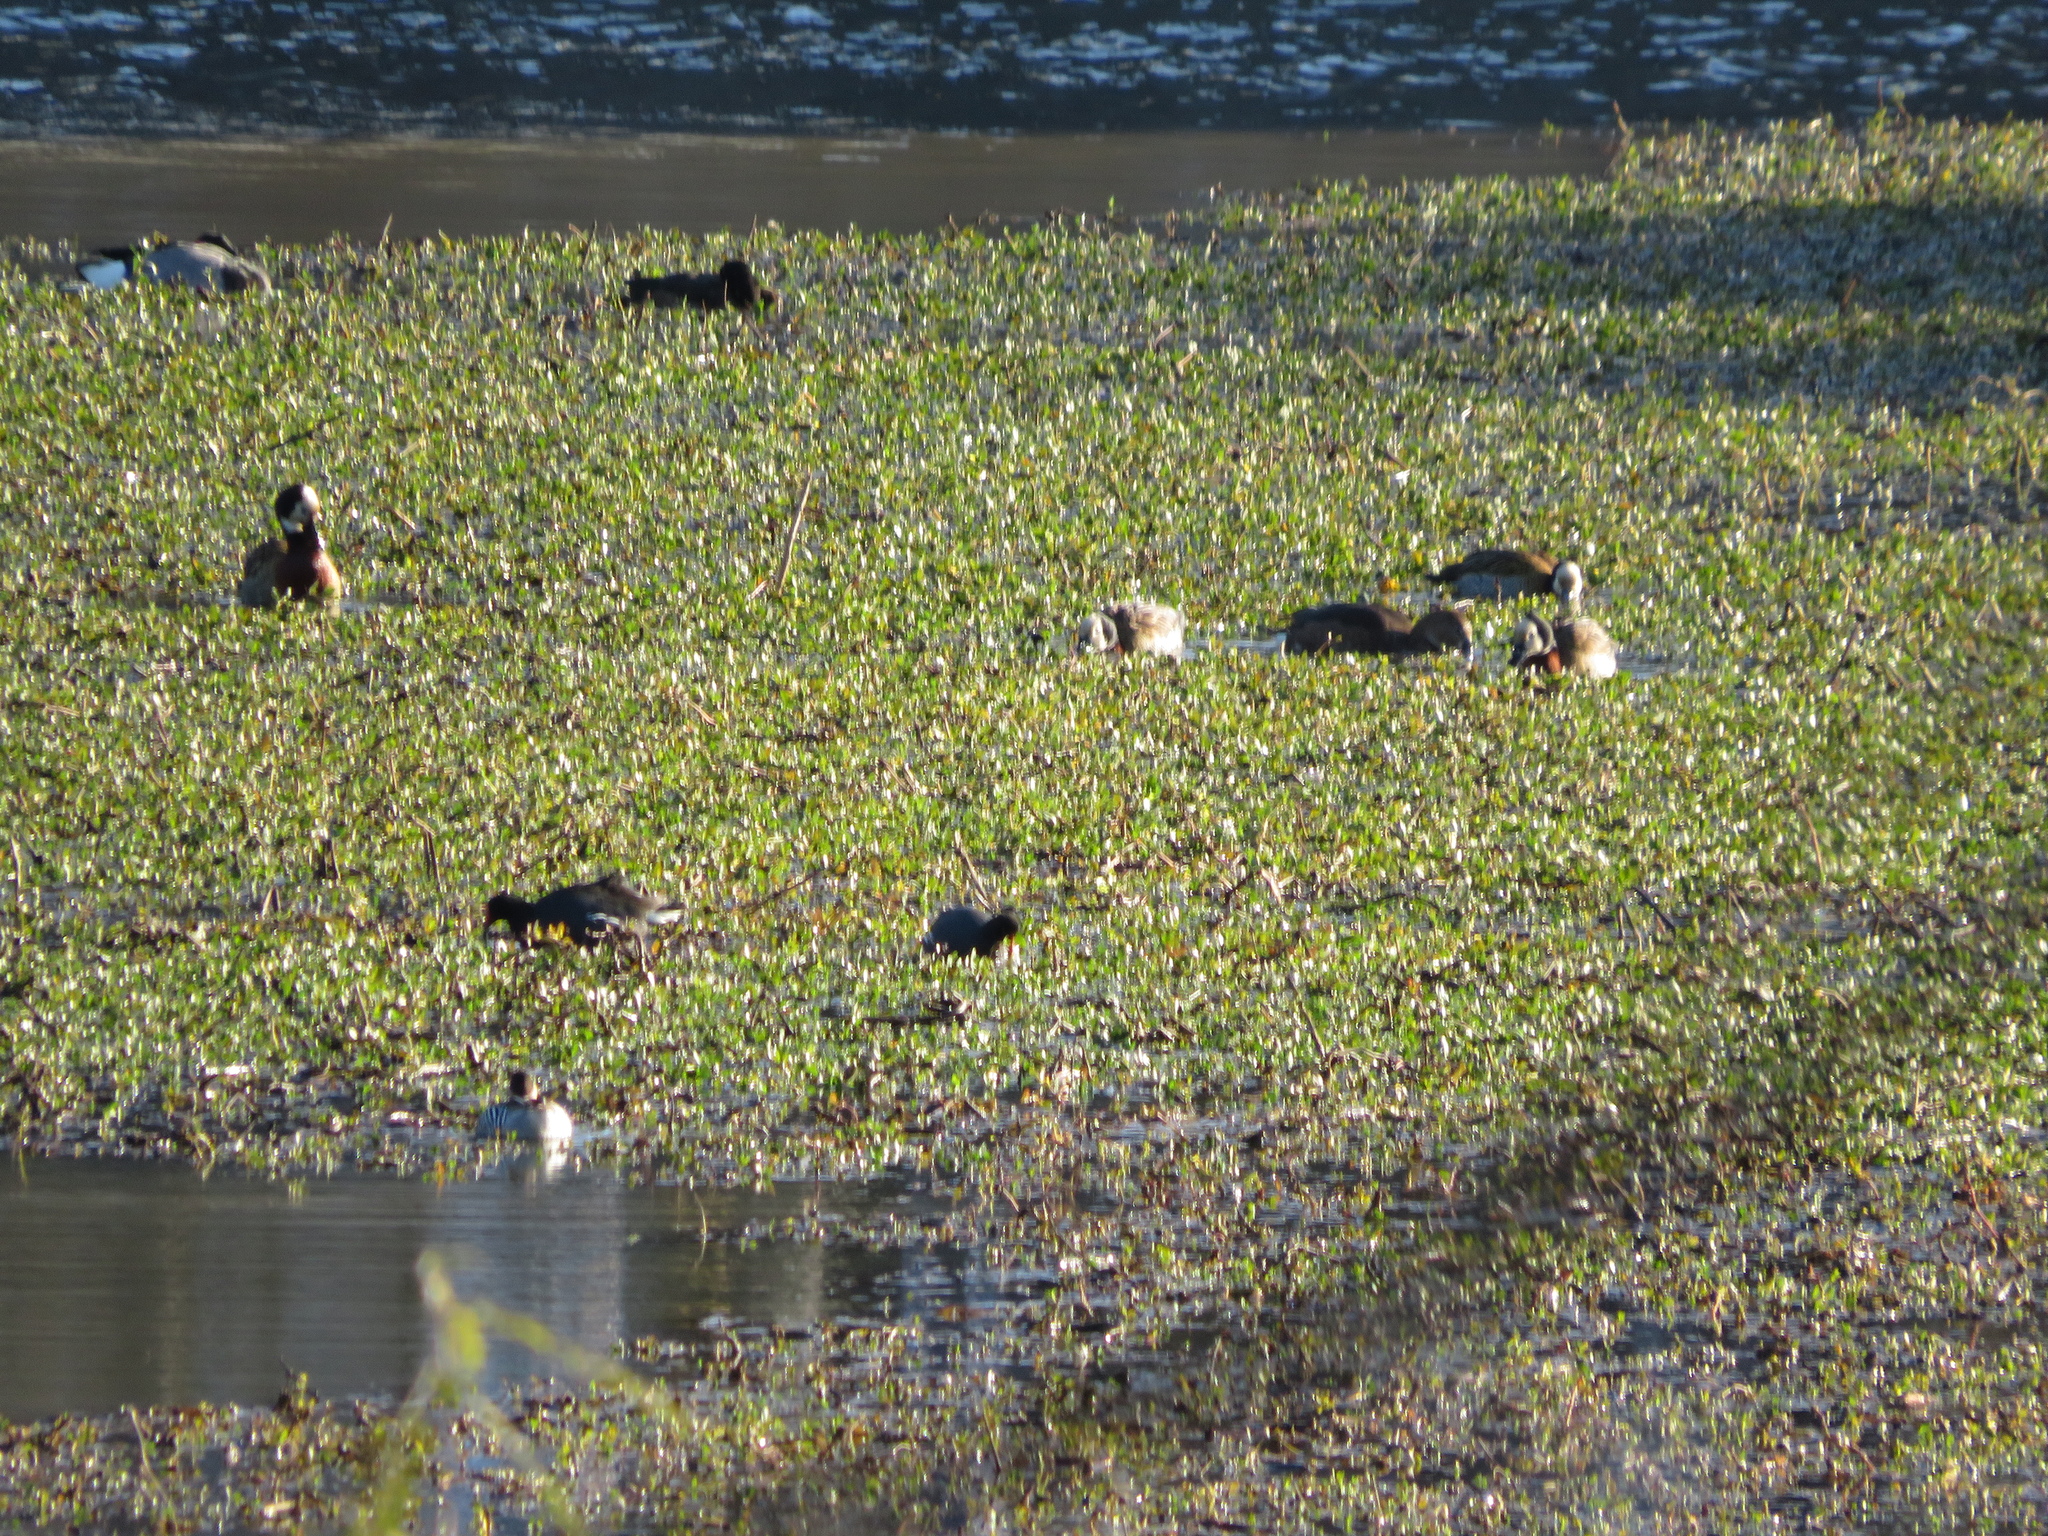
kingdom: Animalia
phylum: Chordata
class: Aves
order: Anseriformes
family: Anatidae
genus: Dendrocygna
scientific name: Dendrocygna viduata
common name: White-faced whistling duck
